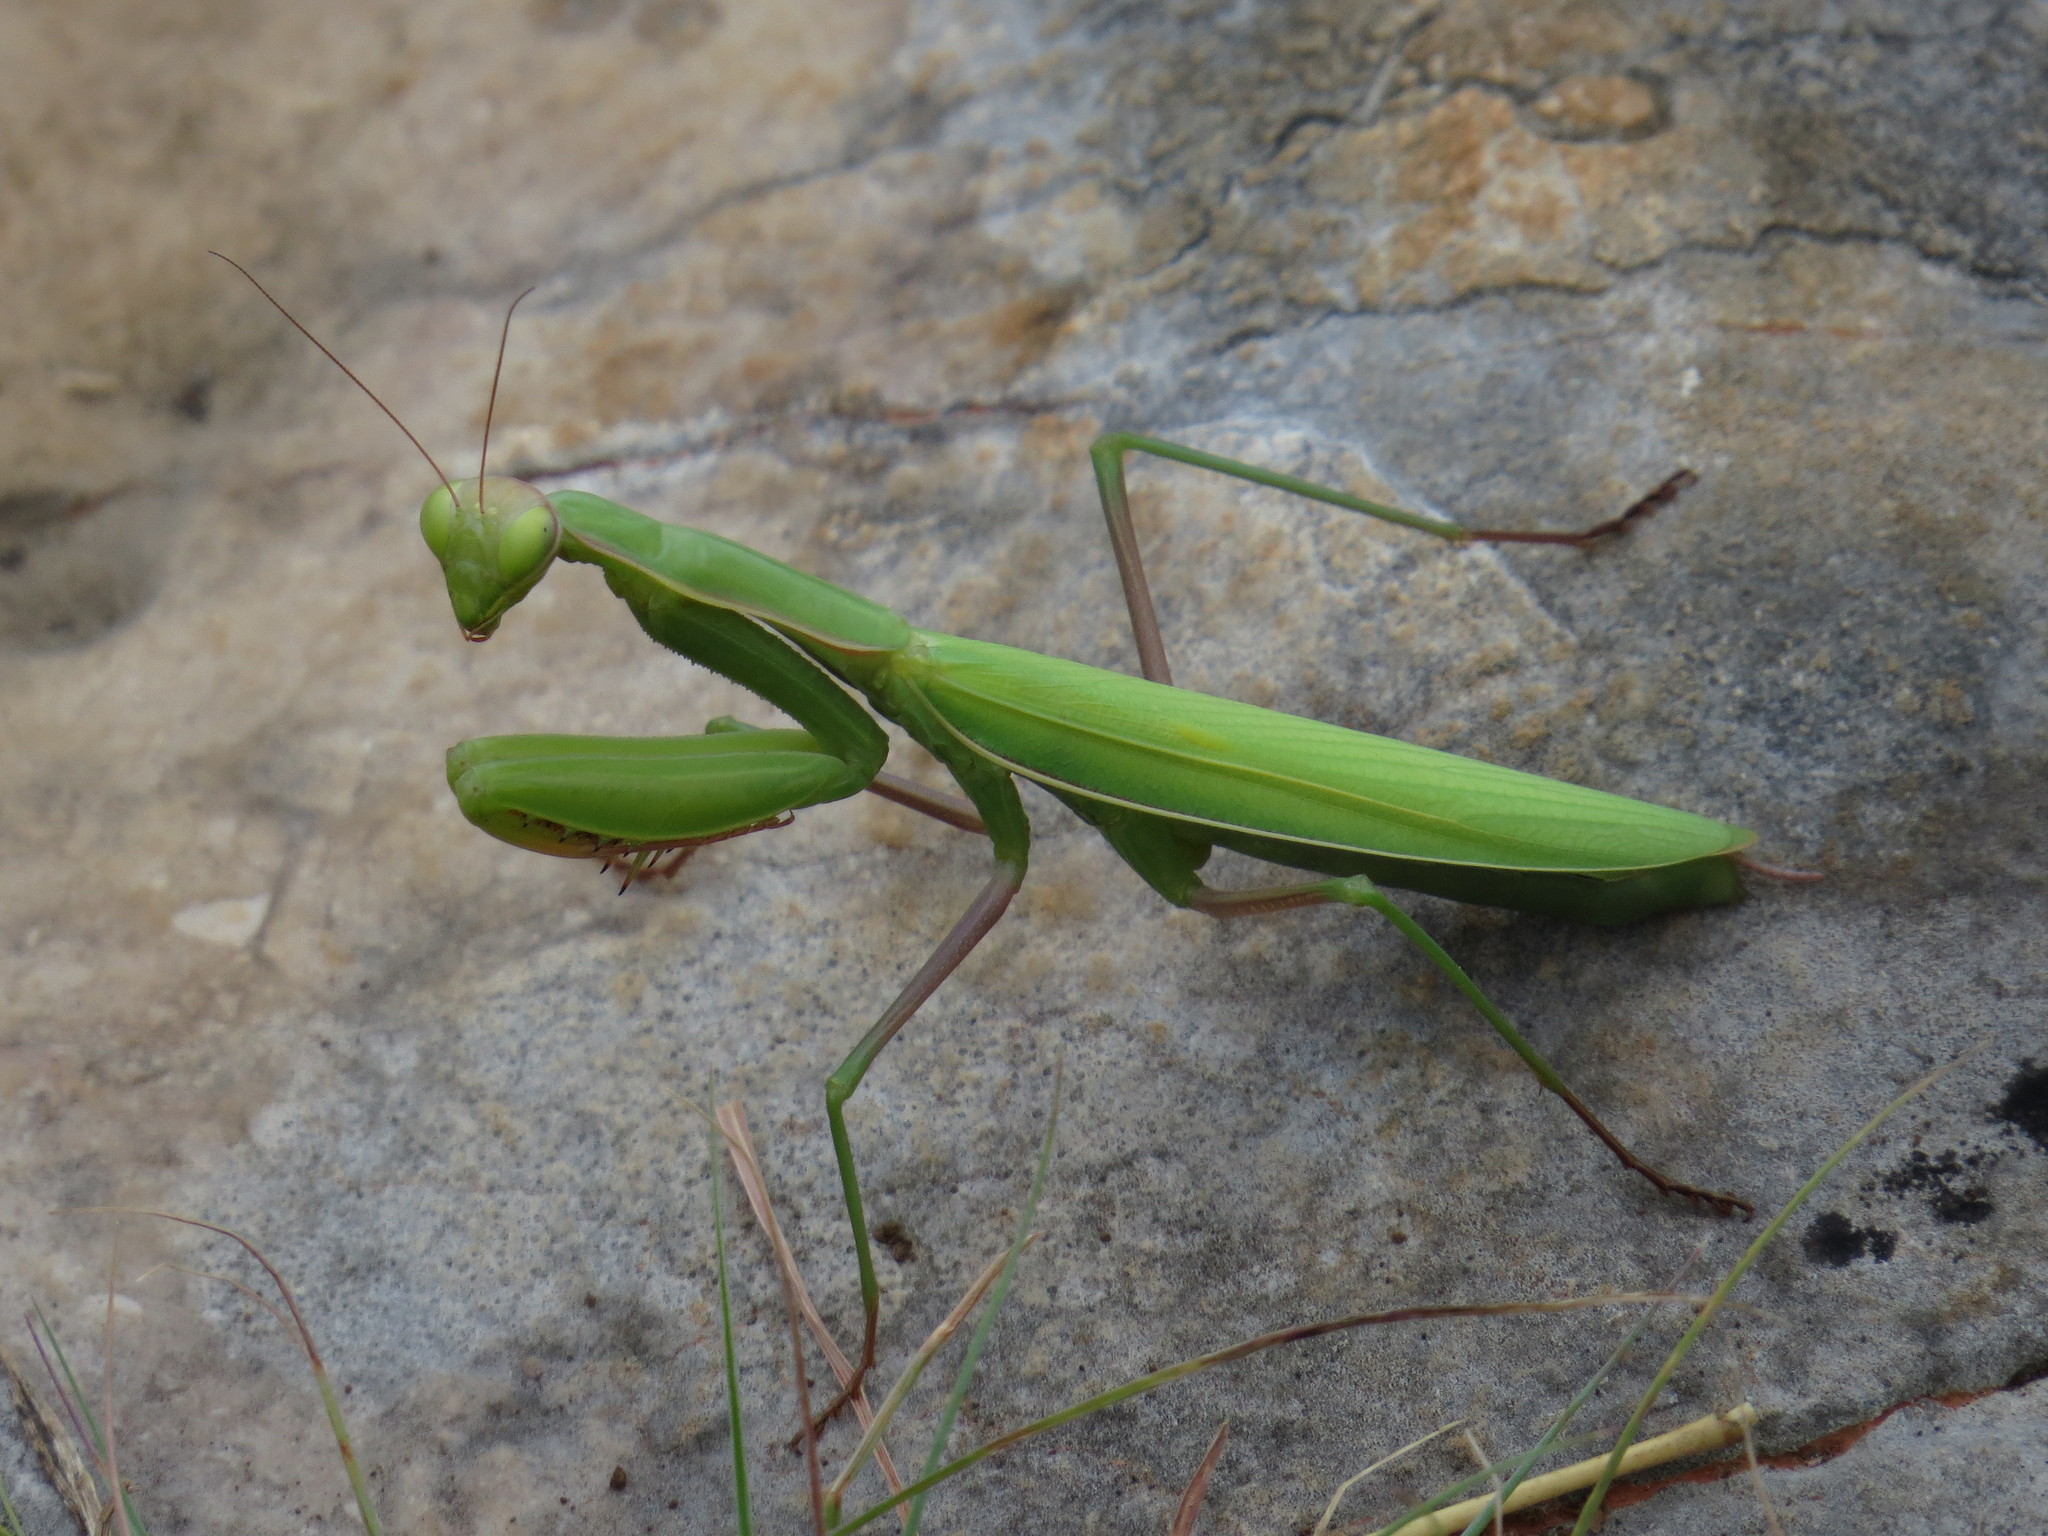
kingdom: Animalia
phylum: Arthropoda
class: Insecta
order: Mantodea
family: Mantidae
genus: Mantis
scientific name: Mantis religiosa
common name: Praying mantis
